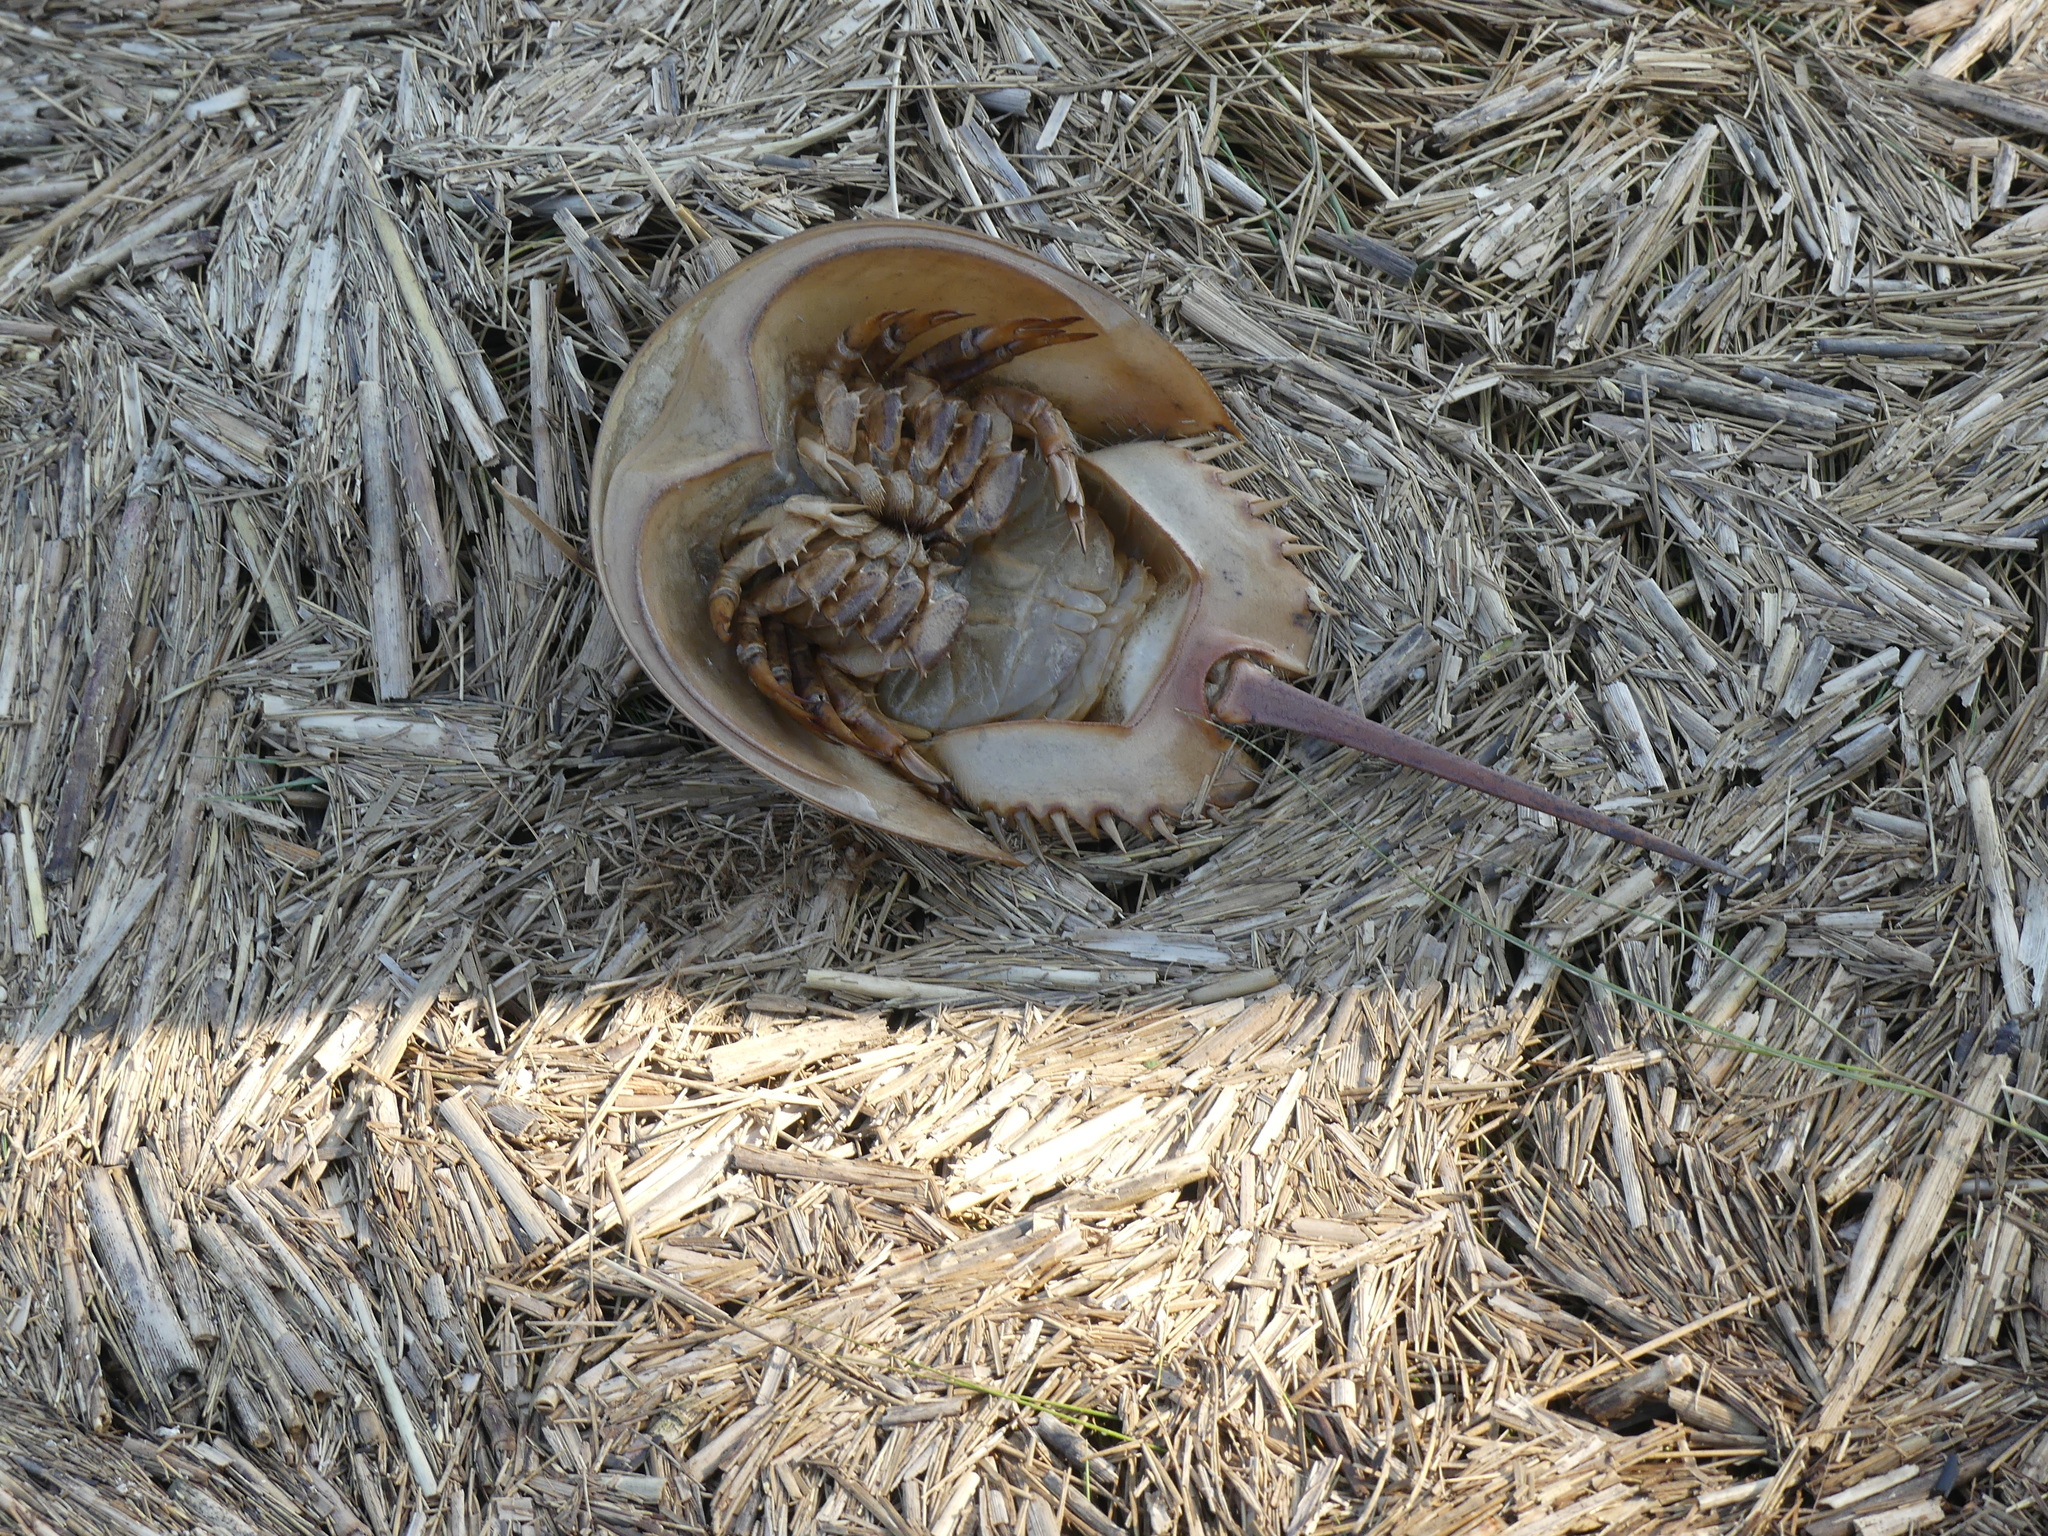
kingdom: Animalia
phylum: Arthropoda
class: Merostomata
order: Xiphosurida
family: Limulidae
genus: Limulus
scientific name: Limulus polyphemus
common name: Horseshoe crab
